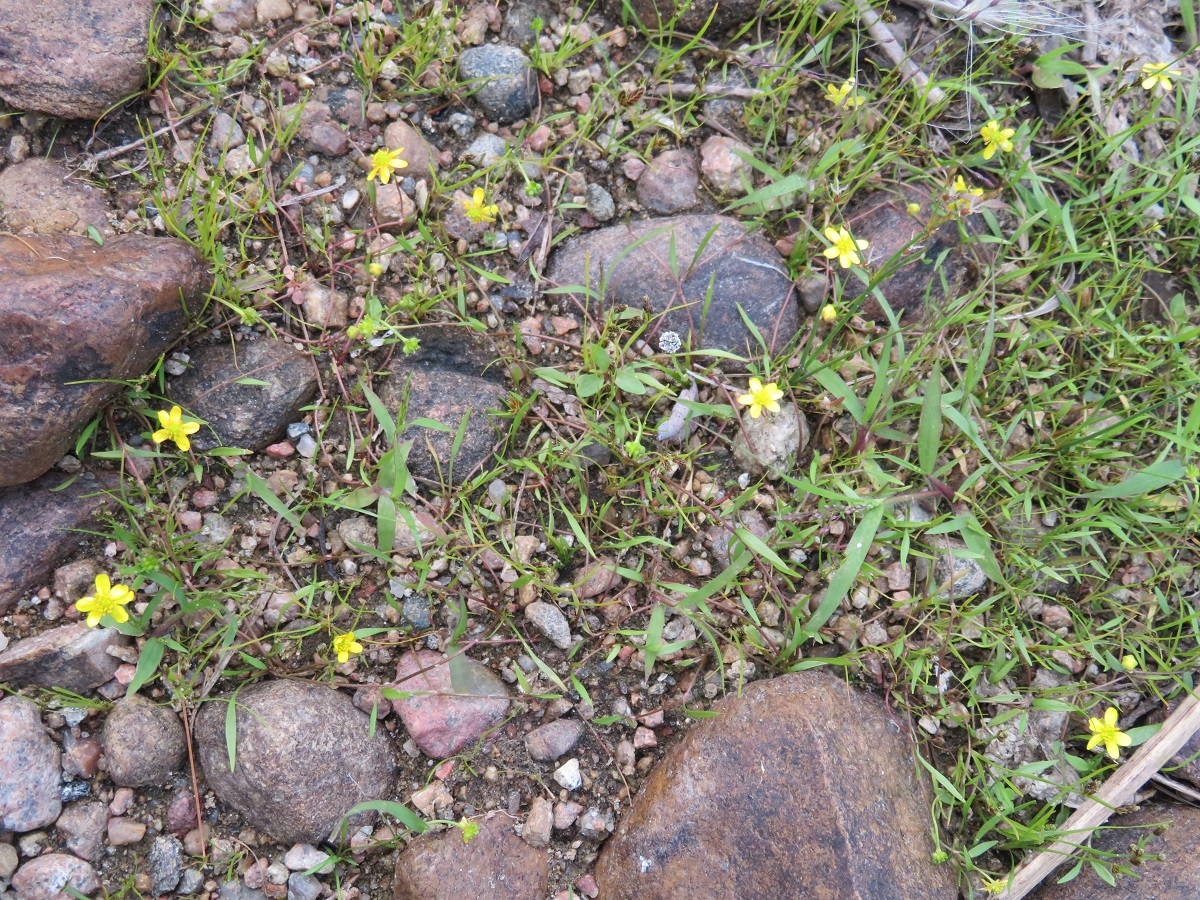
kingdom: Plantae
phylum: Tracheophyta
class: Magnoliopsida
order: Ranunculales
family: Ranunculaceae
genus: Ranunculus
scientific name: Ranunculus reptans
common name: Creeping spearwort
